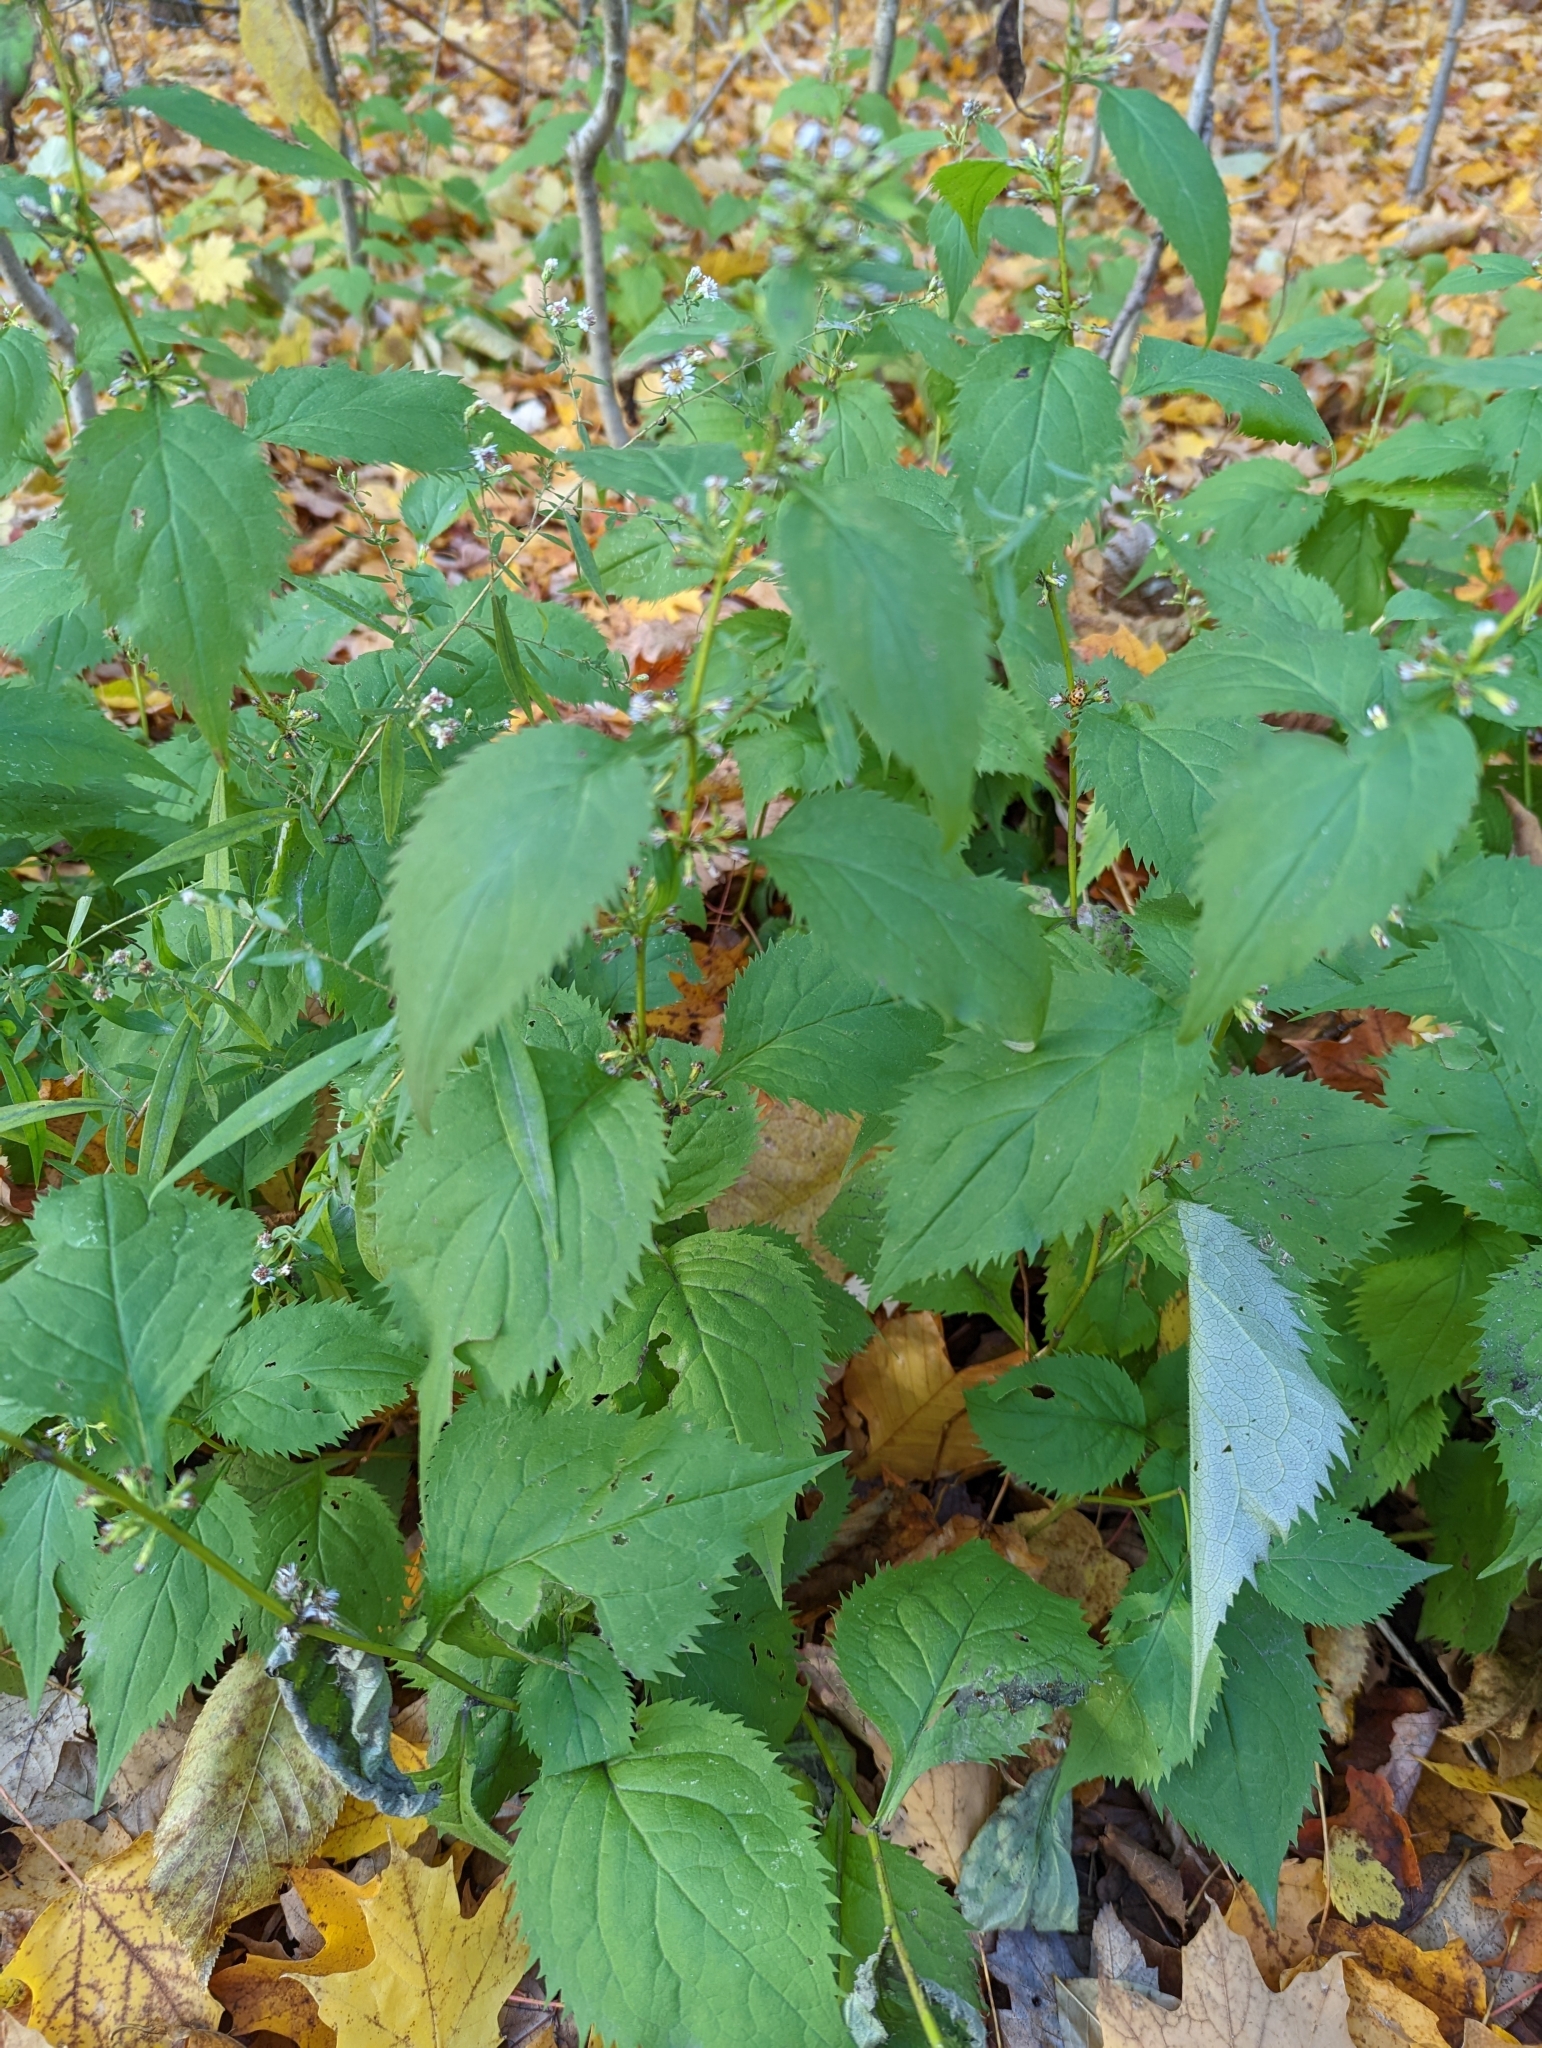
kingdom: Plantae
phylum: Tracheophyta
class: Magnoliopsida
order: Asterales
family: Asteraceae
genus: Solidago
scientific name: Solidago flexicaulis
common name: Zig-zag goldenrod
